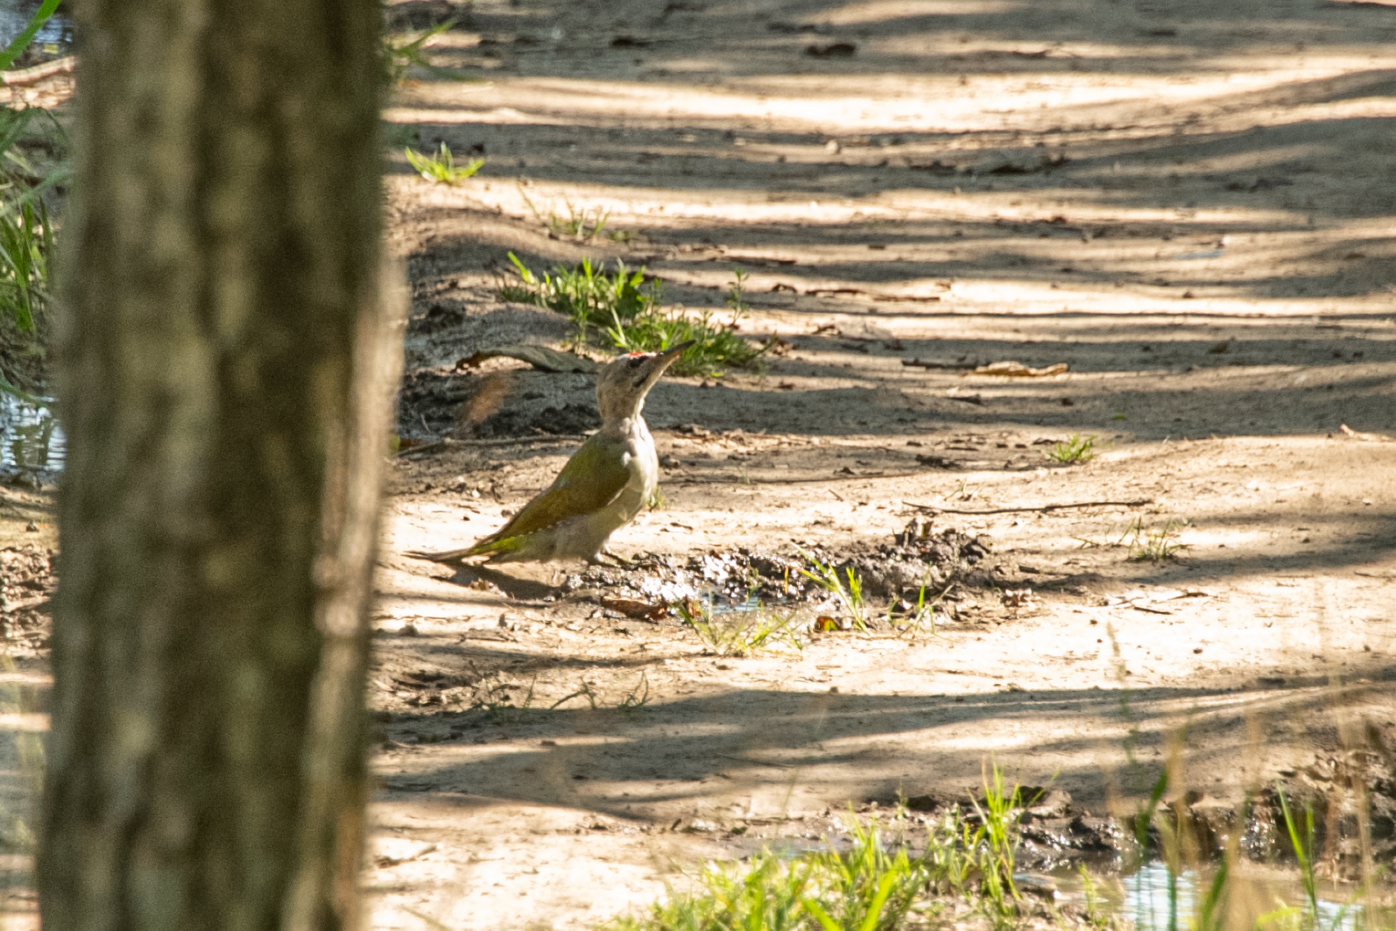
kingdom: Animalia
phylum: Chordata
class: Aves
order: Piciformes
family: Picidae
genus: Picus
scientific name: Picus canus
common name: Grey-headed woodpecker
